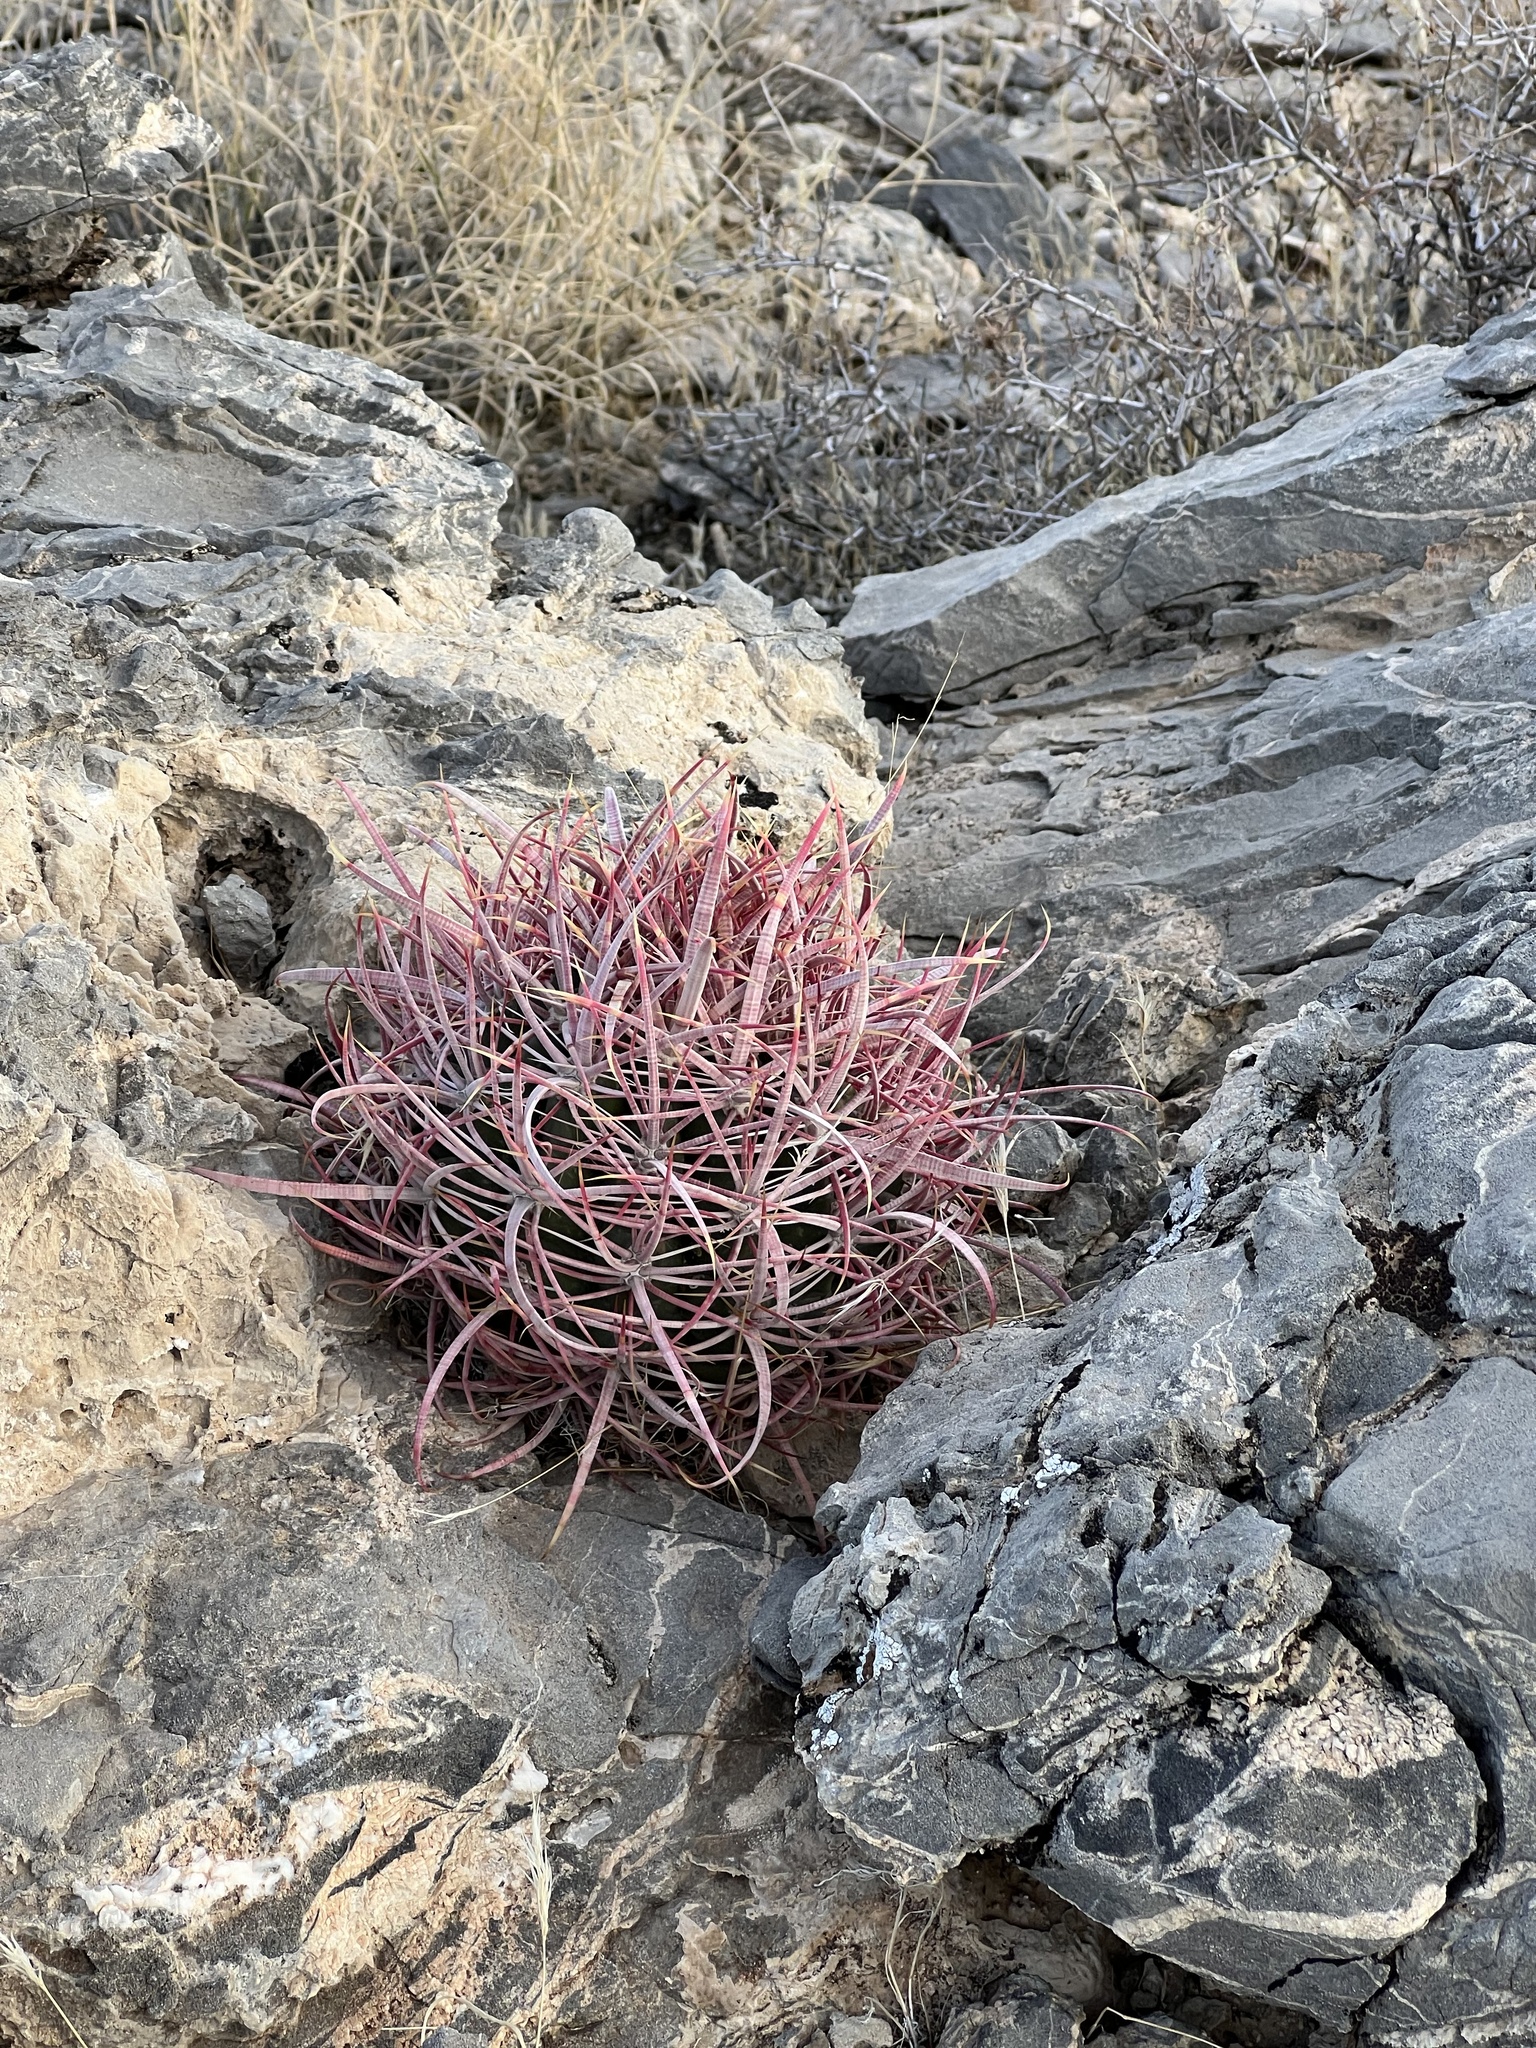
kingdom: Plantae
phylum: Tracheophyta
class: Magnoliopsida
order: Caryophyllales
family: Cactaceae
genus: Ferocactus
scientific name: Ferocactus cylindraceus
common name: California barrel cactus
